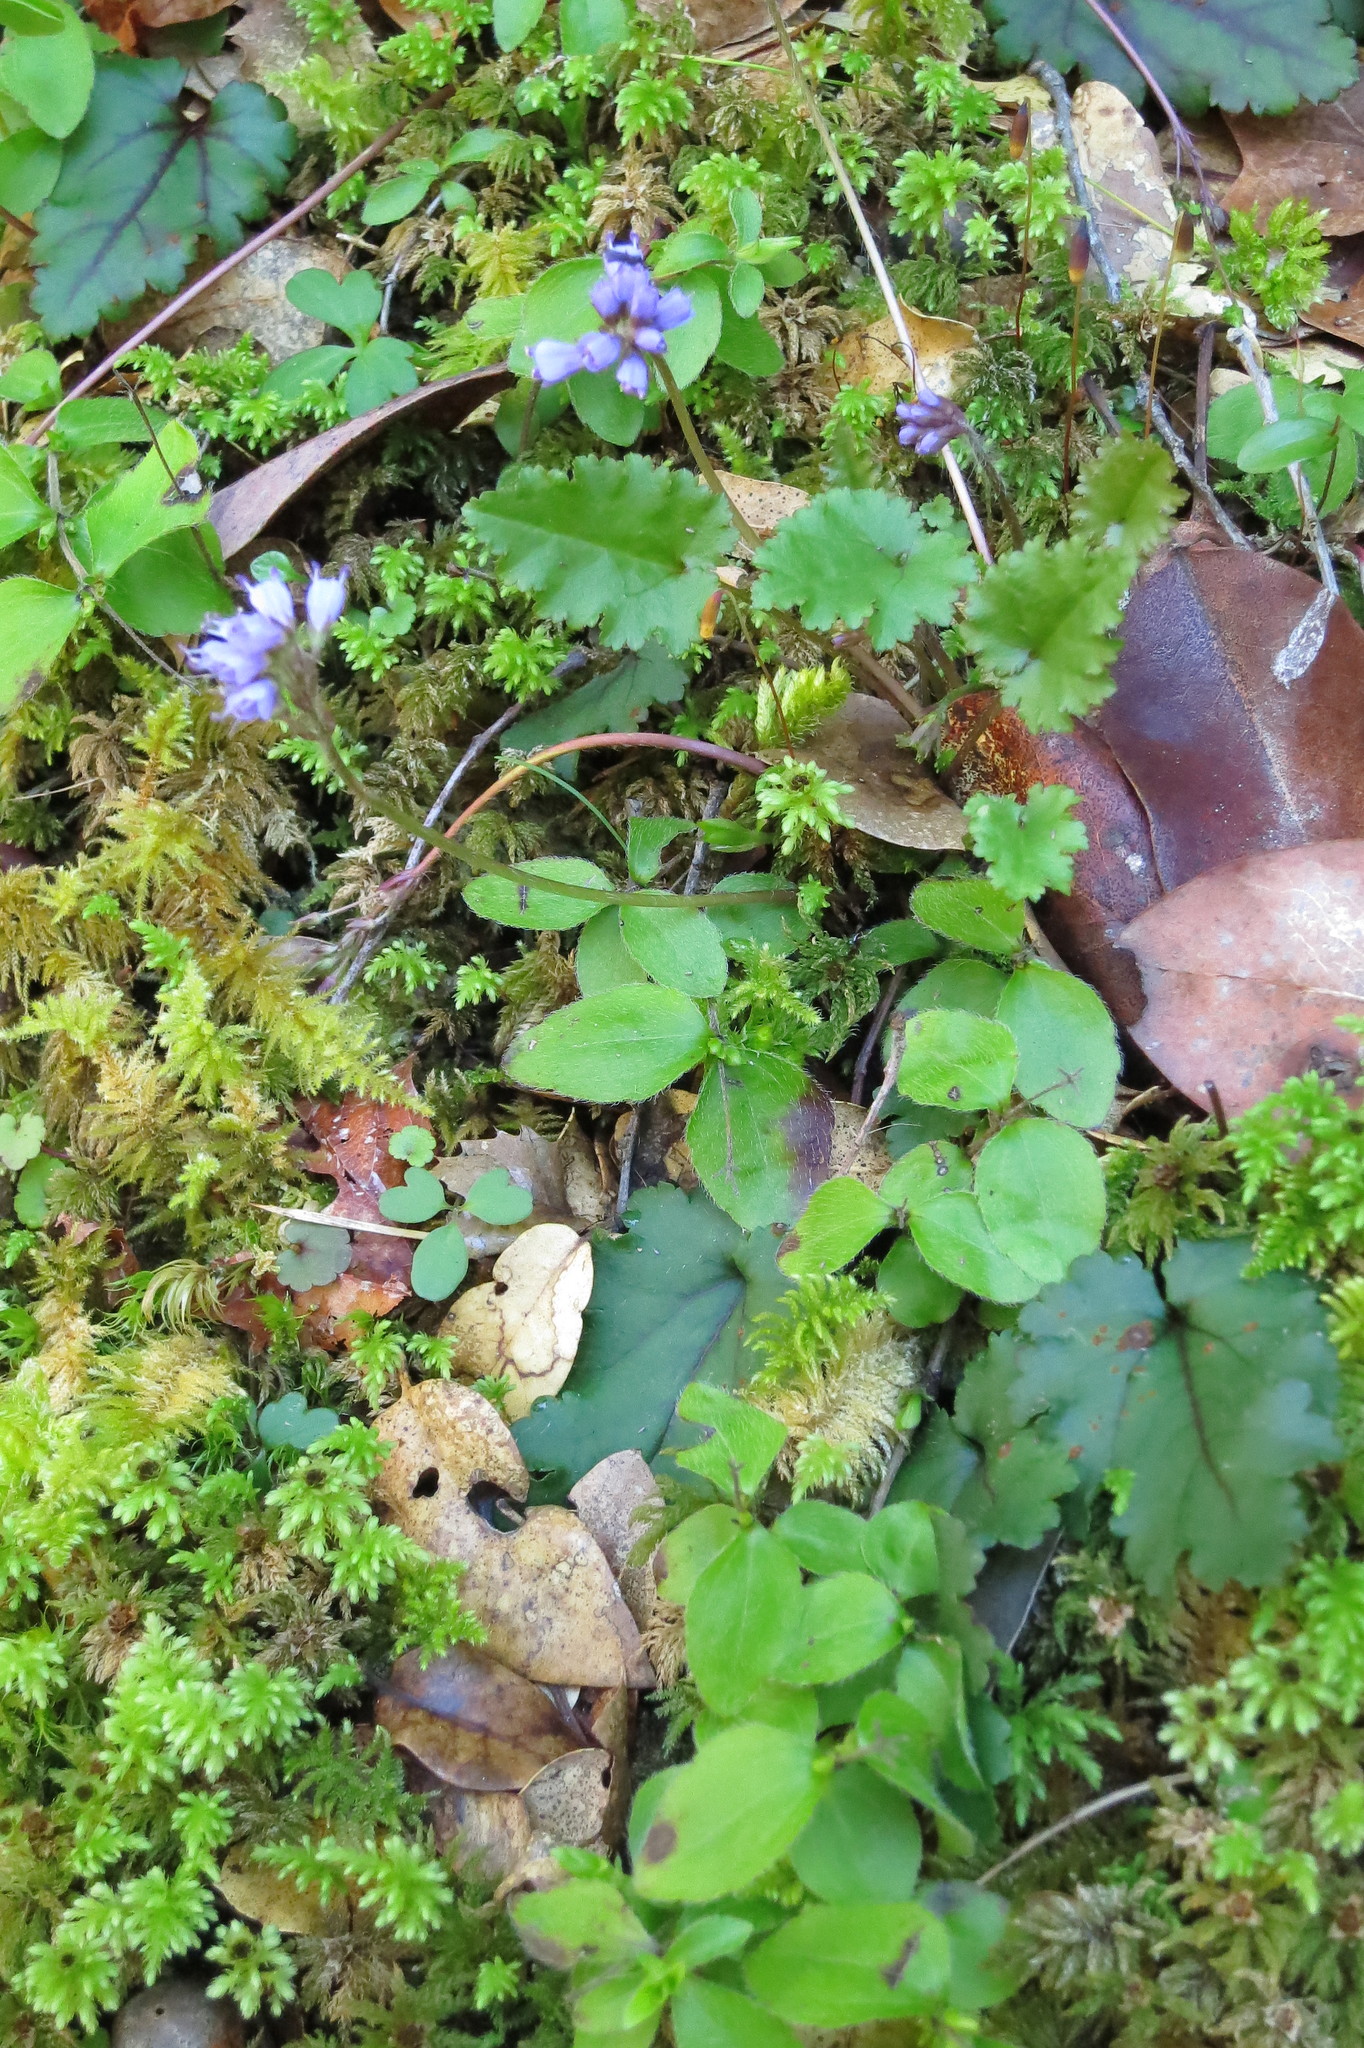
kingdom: Plantae
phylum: Tracheophyta
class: Magnoliopsida
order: Lamiales
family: Plantaginaceae
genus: Synthyris
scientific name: Synthyris cordata
